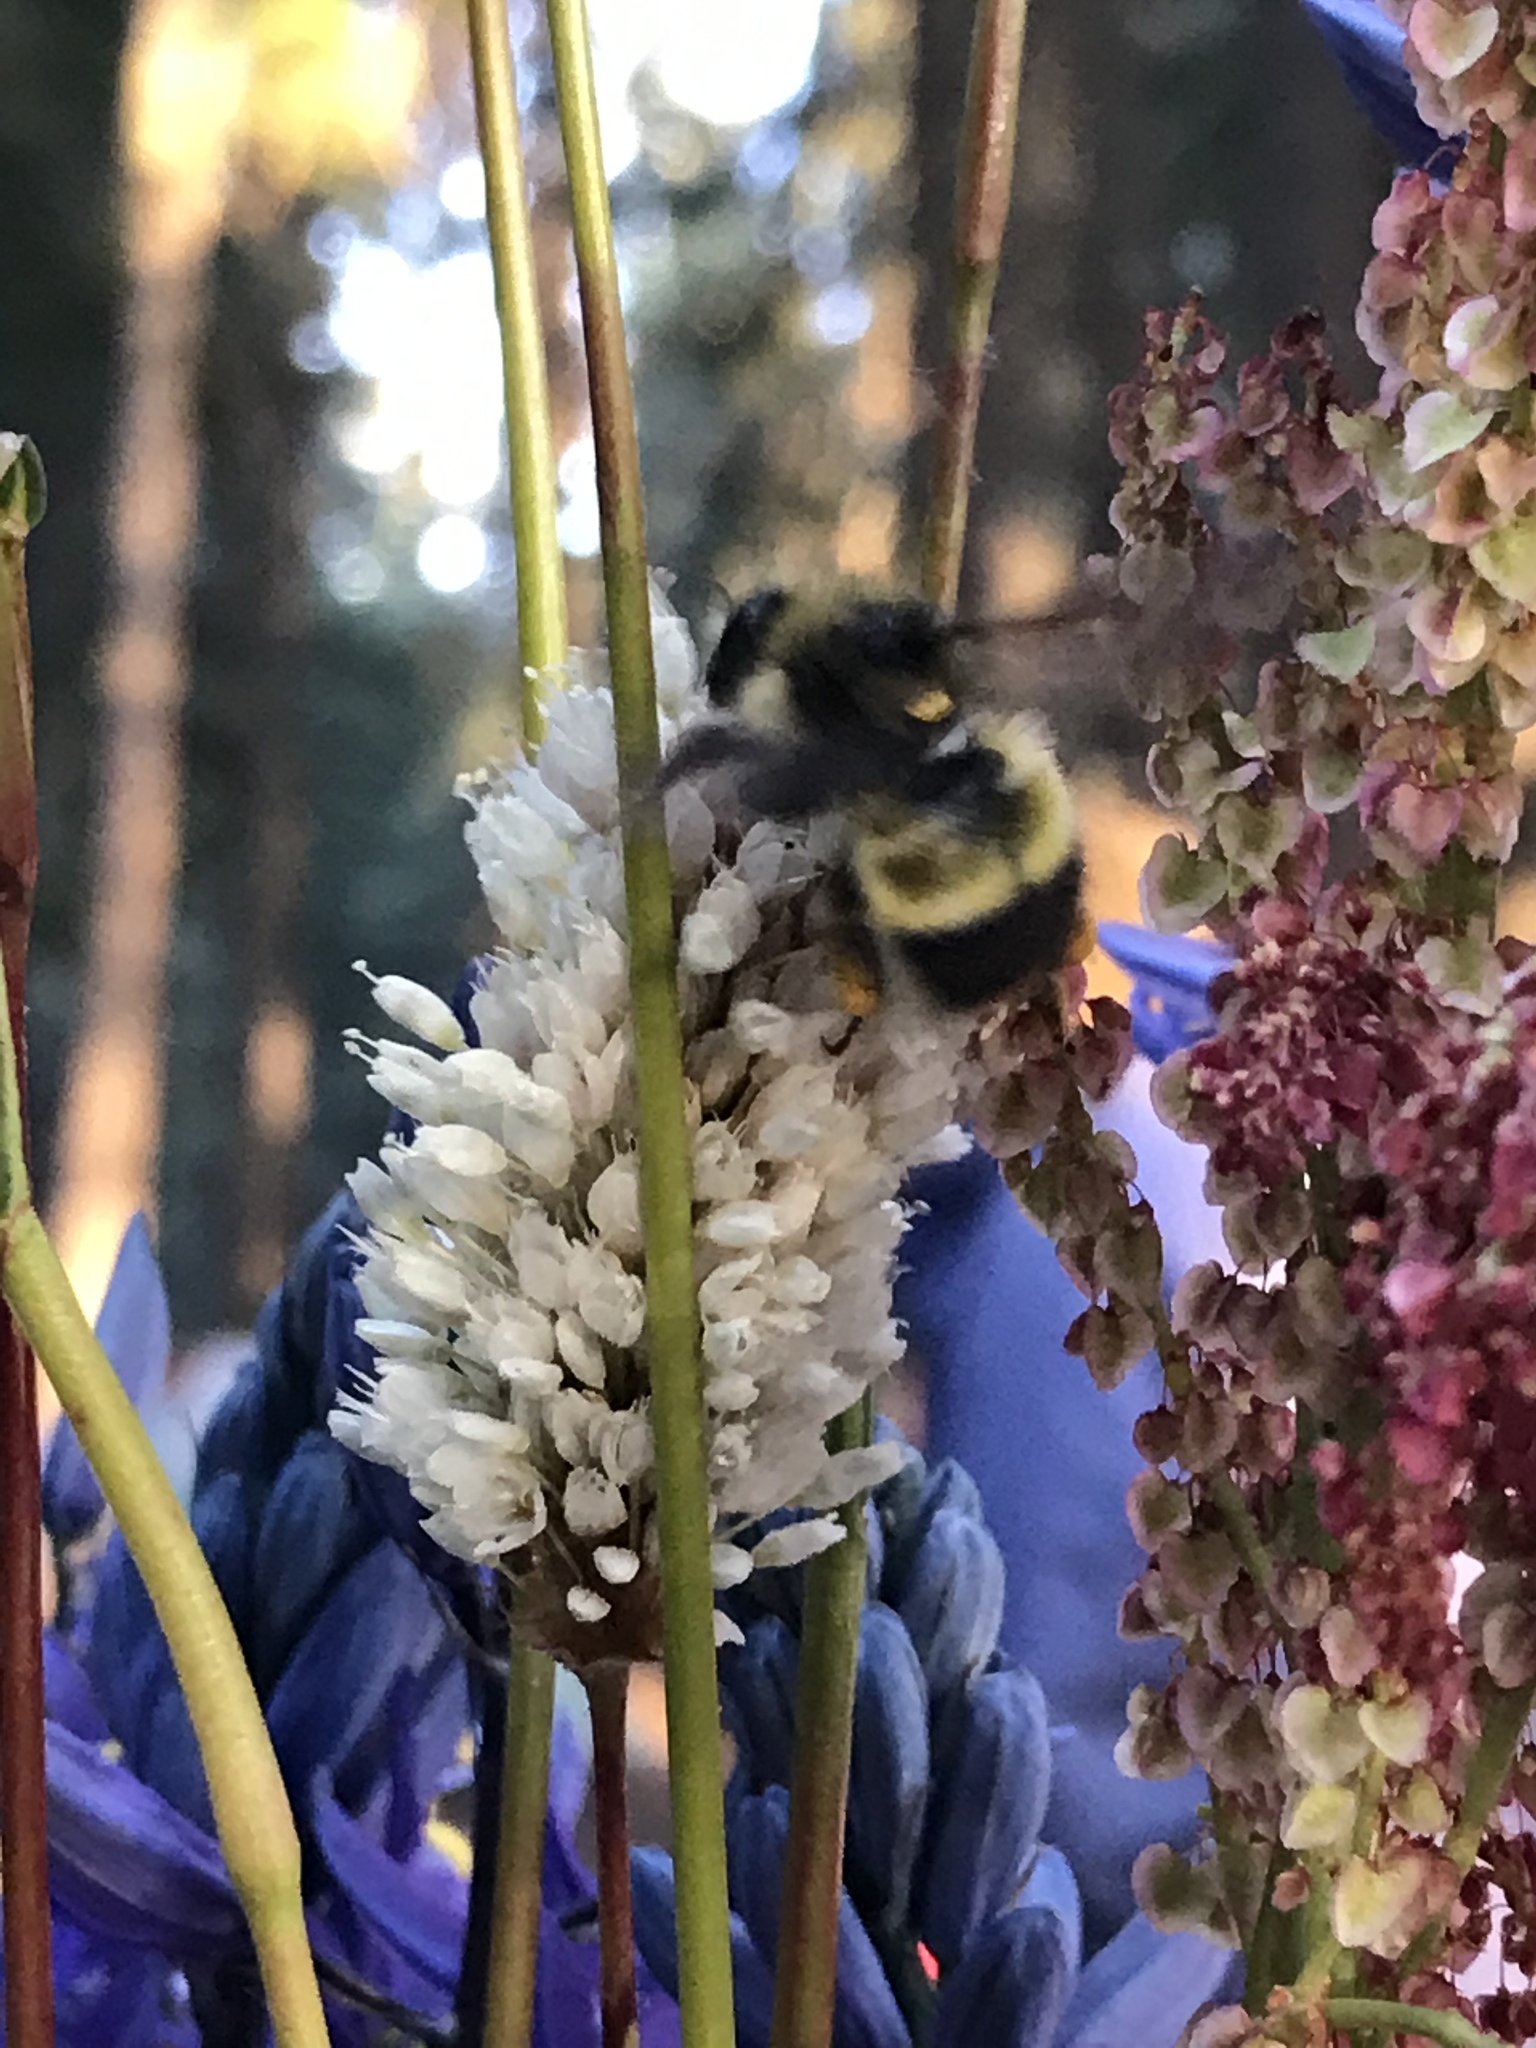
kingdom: Animalia
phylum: Arthropoda
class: Insecta
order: Hymenoptera
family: Apidae
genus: Pyrobombus
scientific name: Pyrobombus
